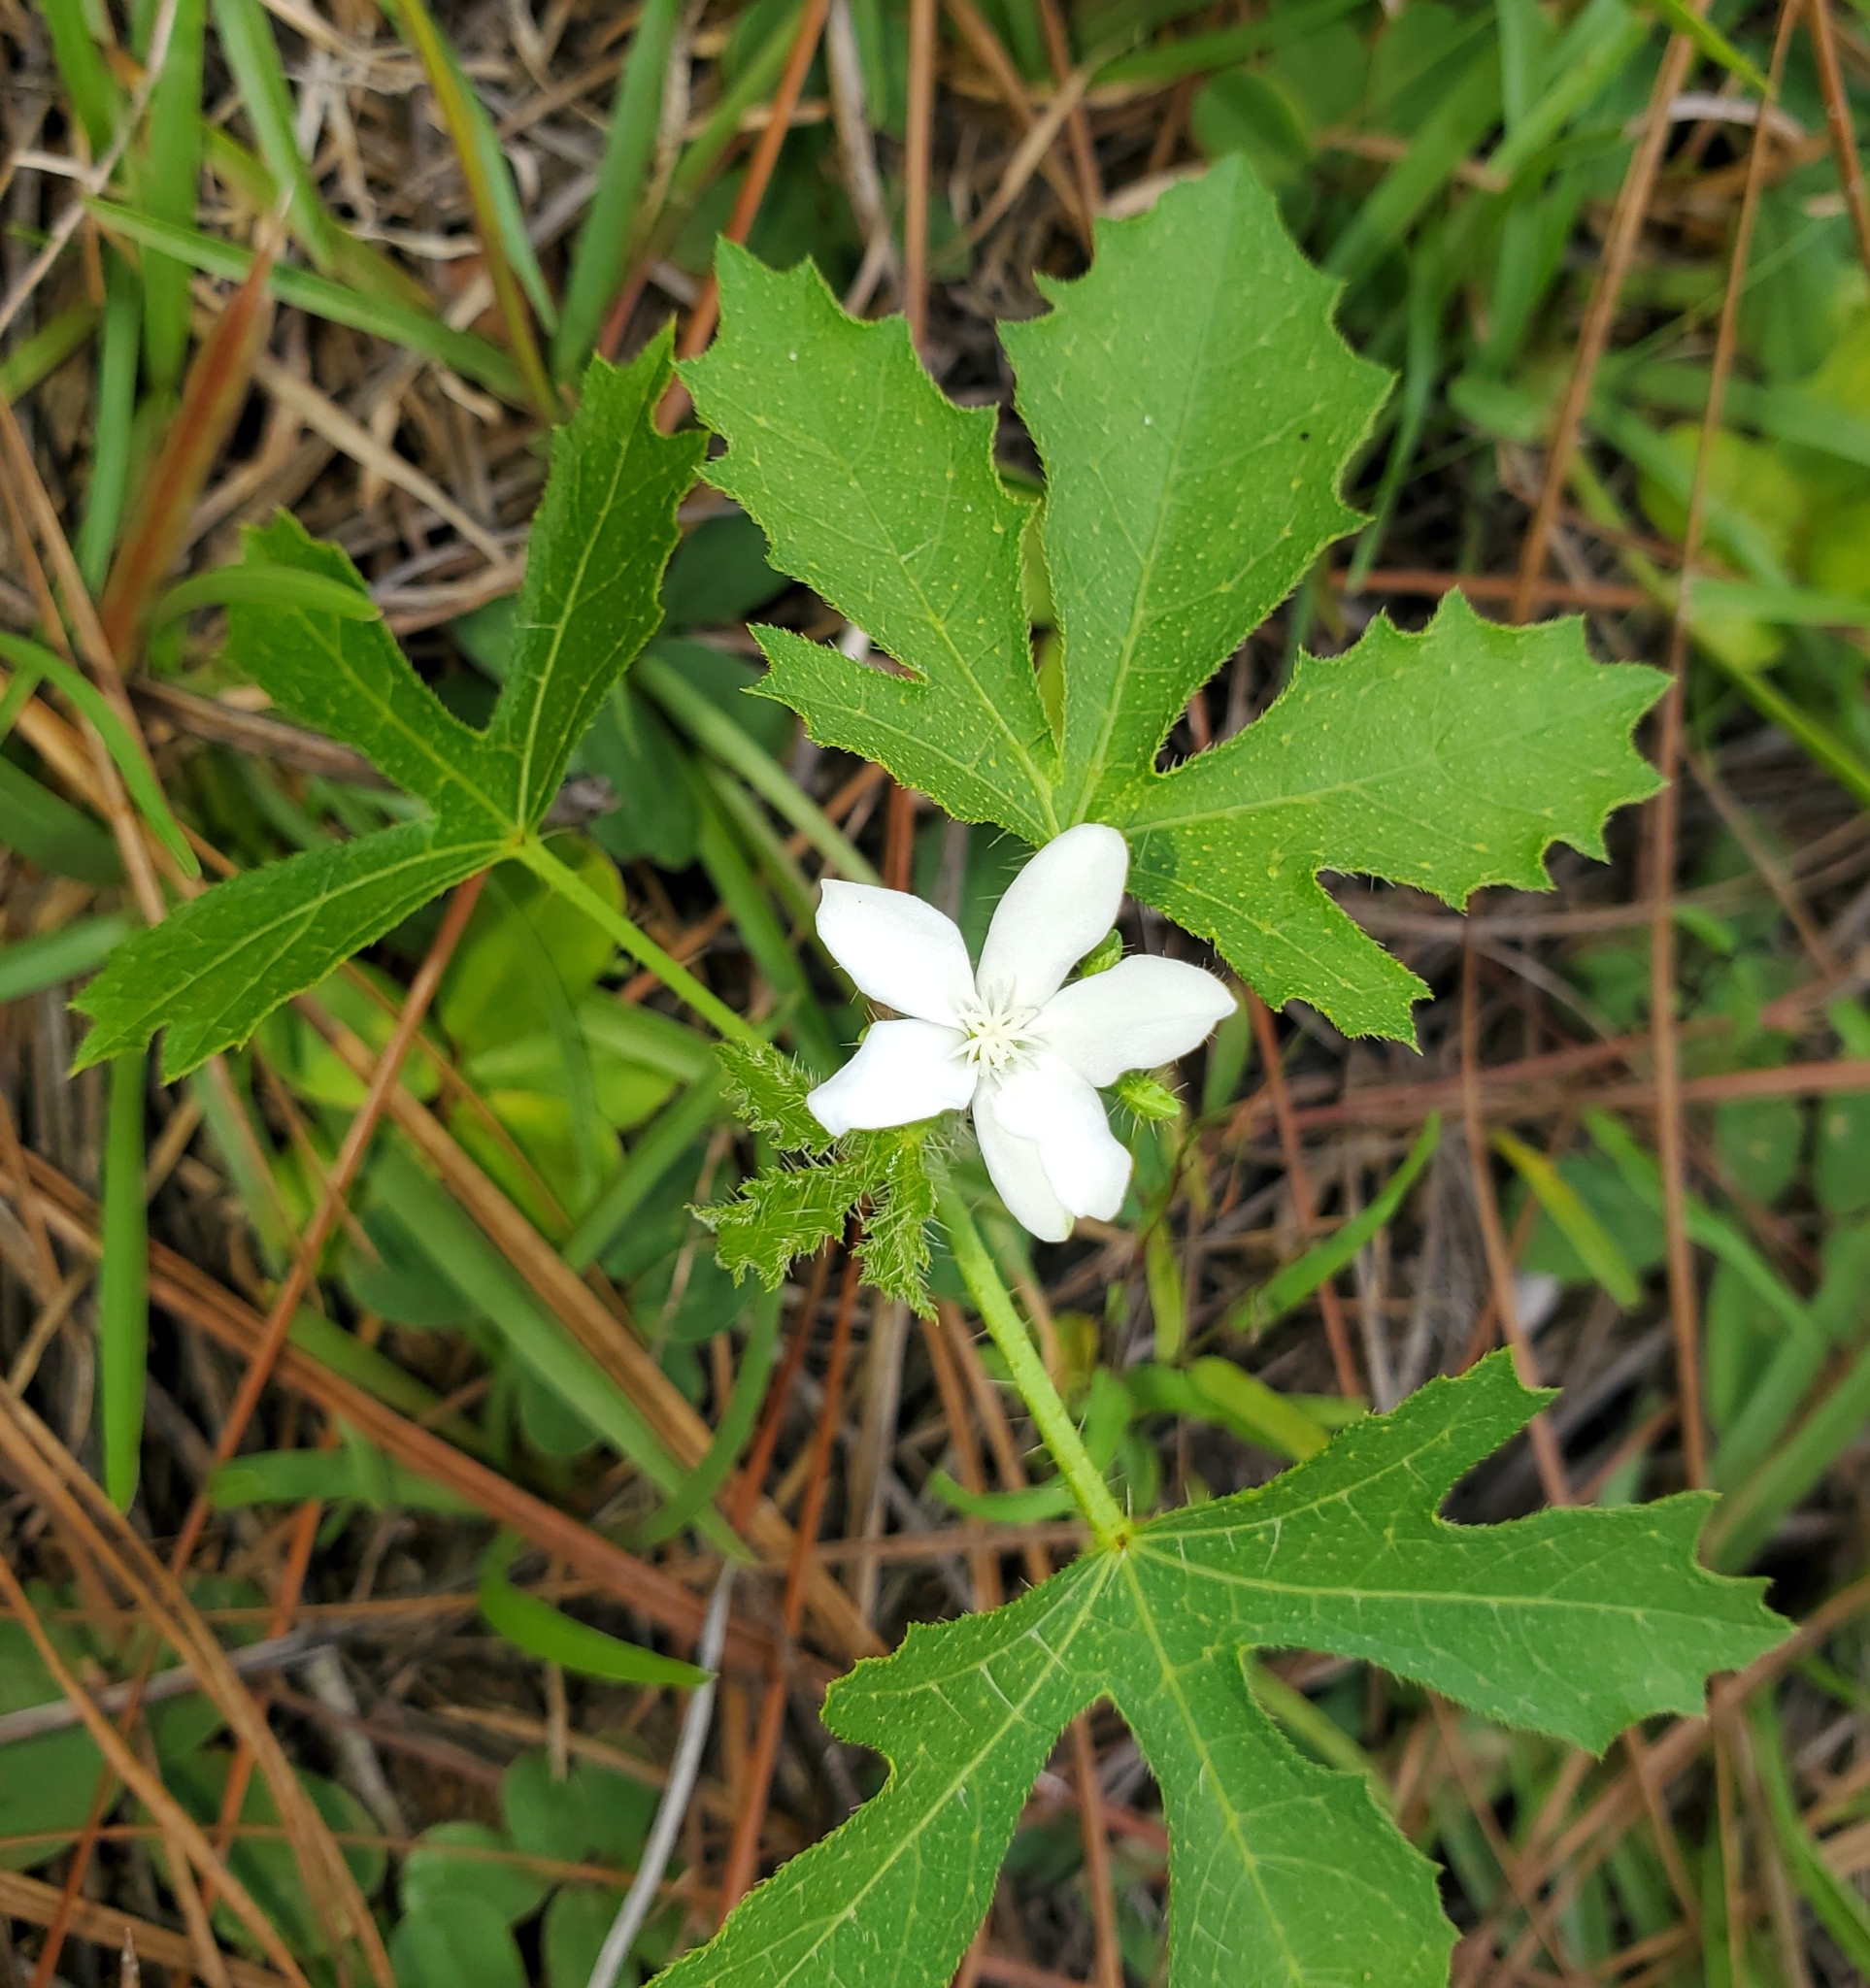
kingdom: Plantae
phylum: Tracheophyta
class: Magnoliopsida
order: Malpighiales
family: Euphorbiaceae
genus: Cnidoscolus
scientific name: Cnidoscolus stimulosus
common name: Bull-nettle
